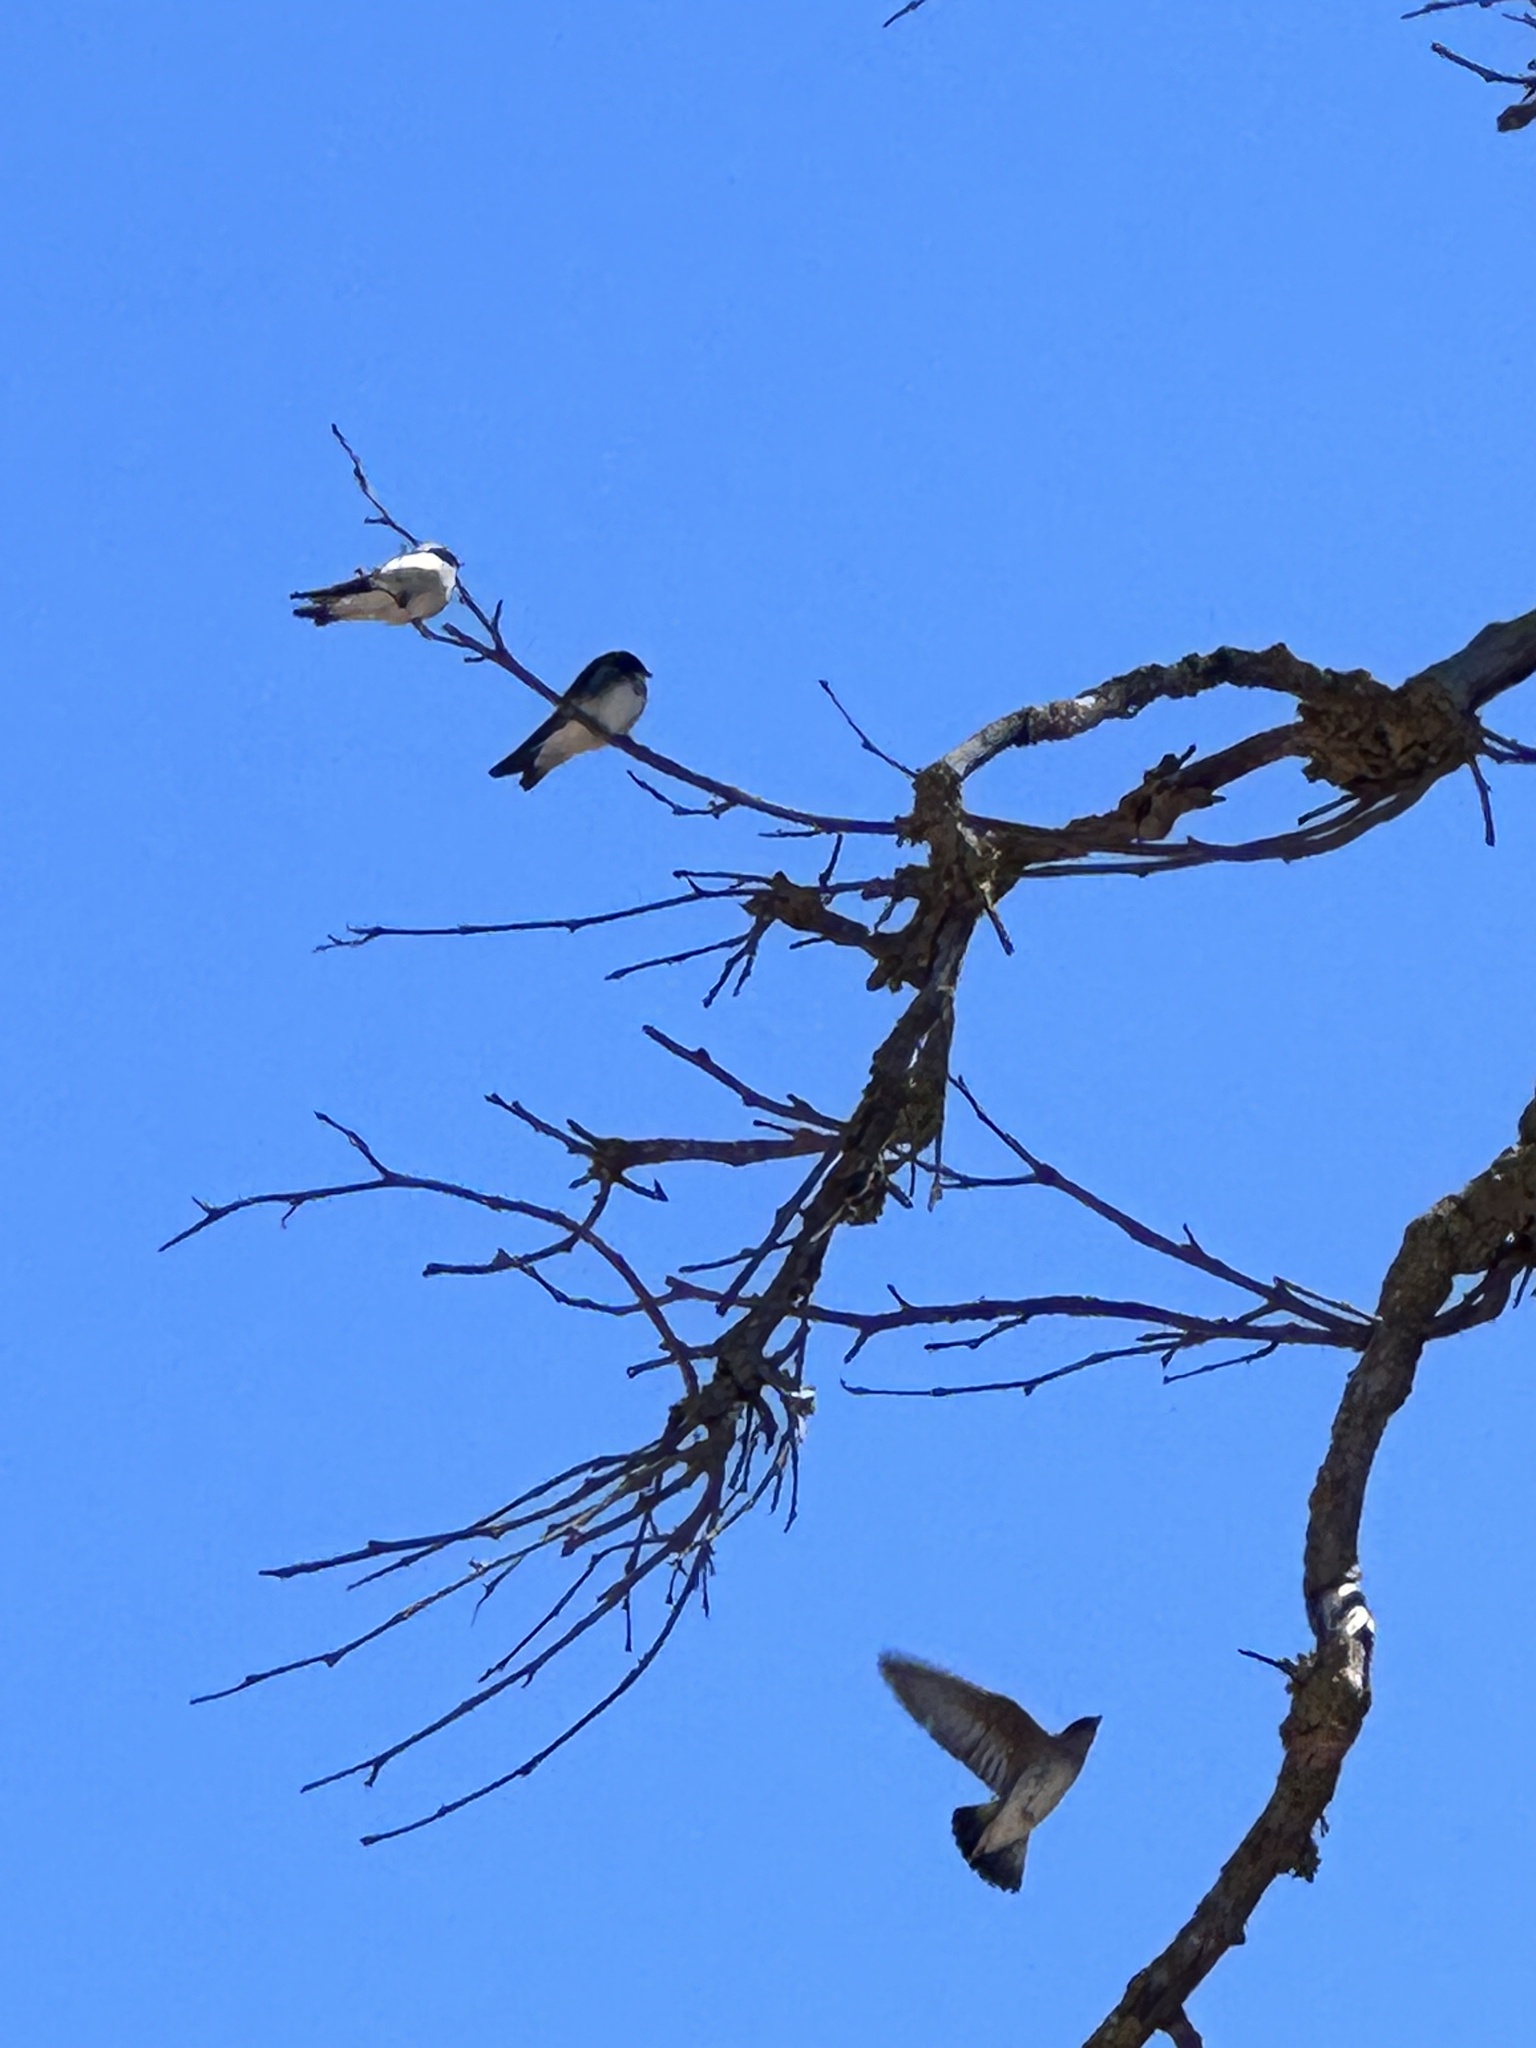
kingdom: Animalia
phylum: Chordata
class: Aves
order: Passeriformes
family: Hirundinidae
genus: Tachycineta
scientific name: Tachycineta bicolor
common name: Tree swallow
